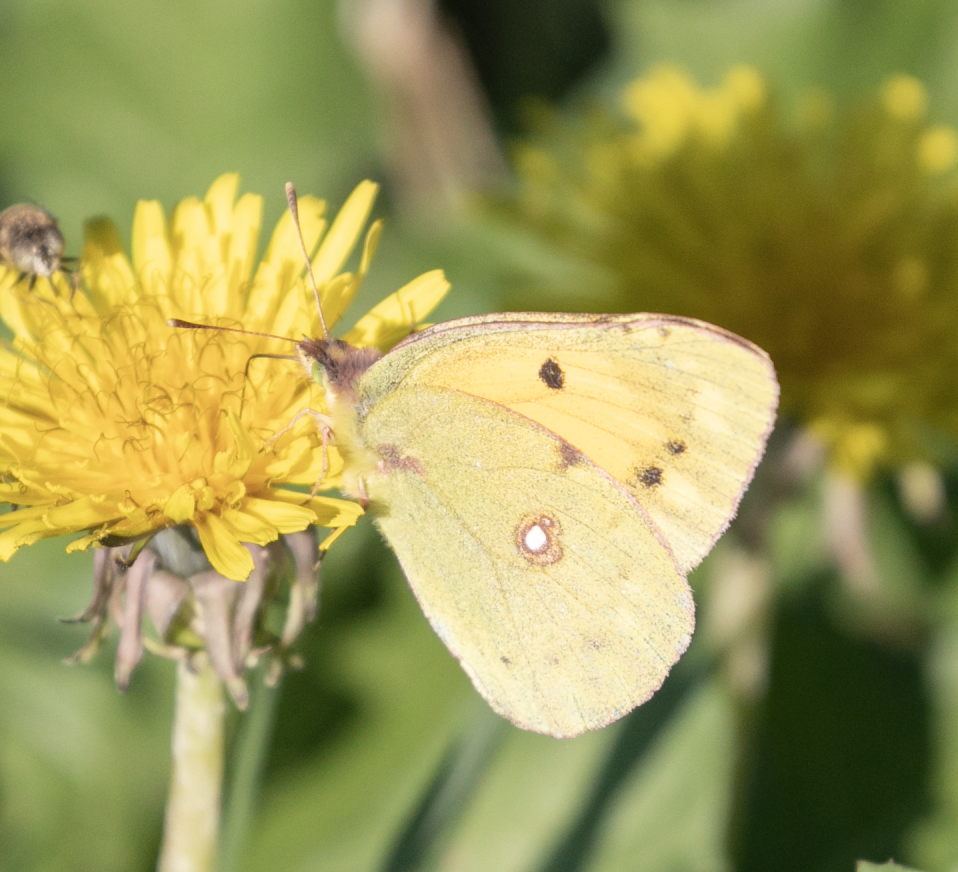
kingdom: Animalia
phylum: Arthropoda
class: Insecta
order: Lepidoptera
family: Pieridae
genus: Colias
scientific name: Colias croceus
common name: Clouded yellow
